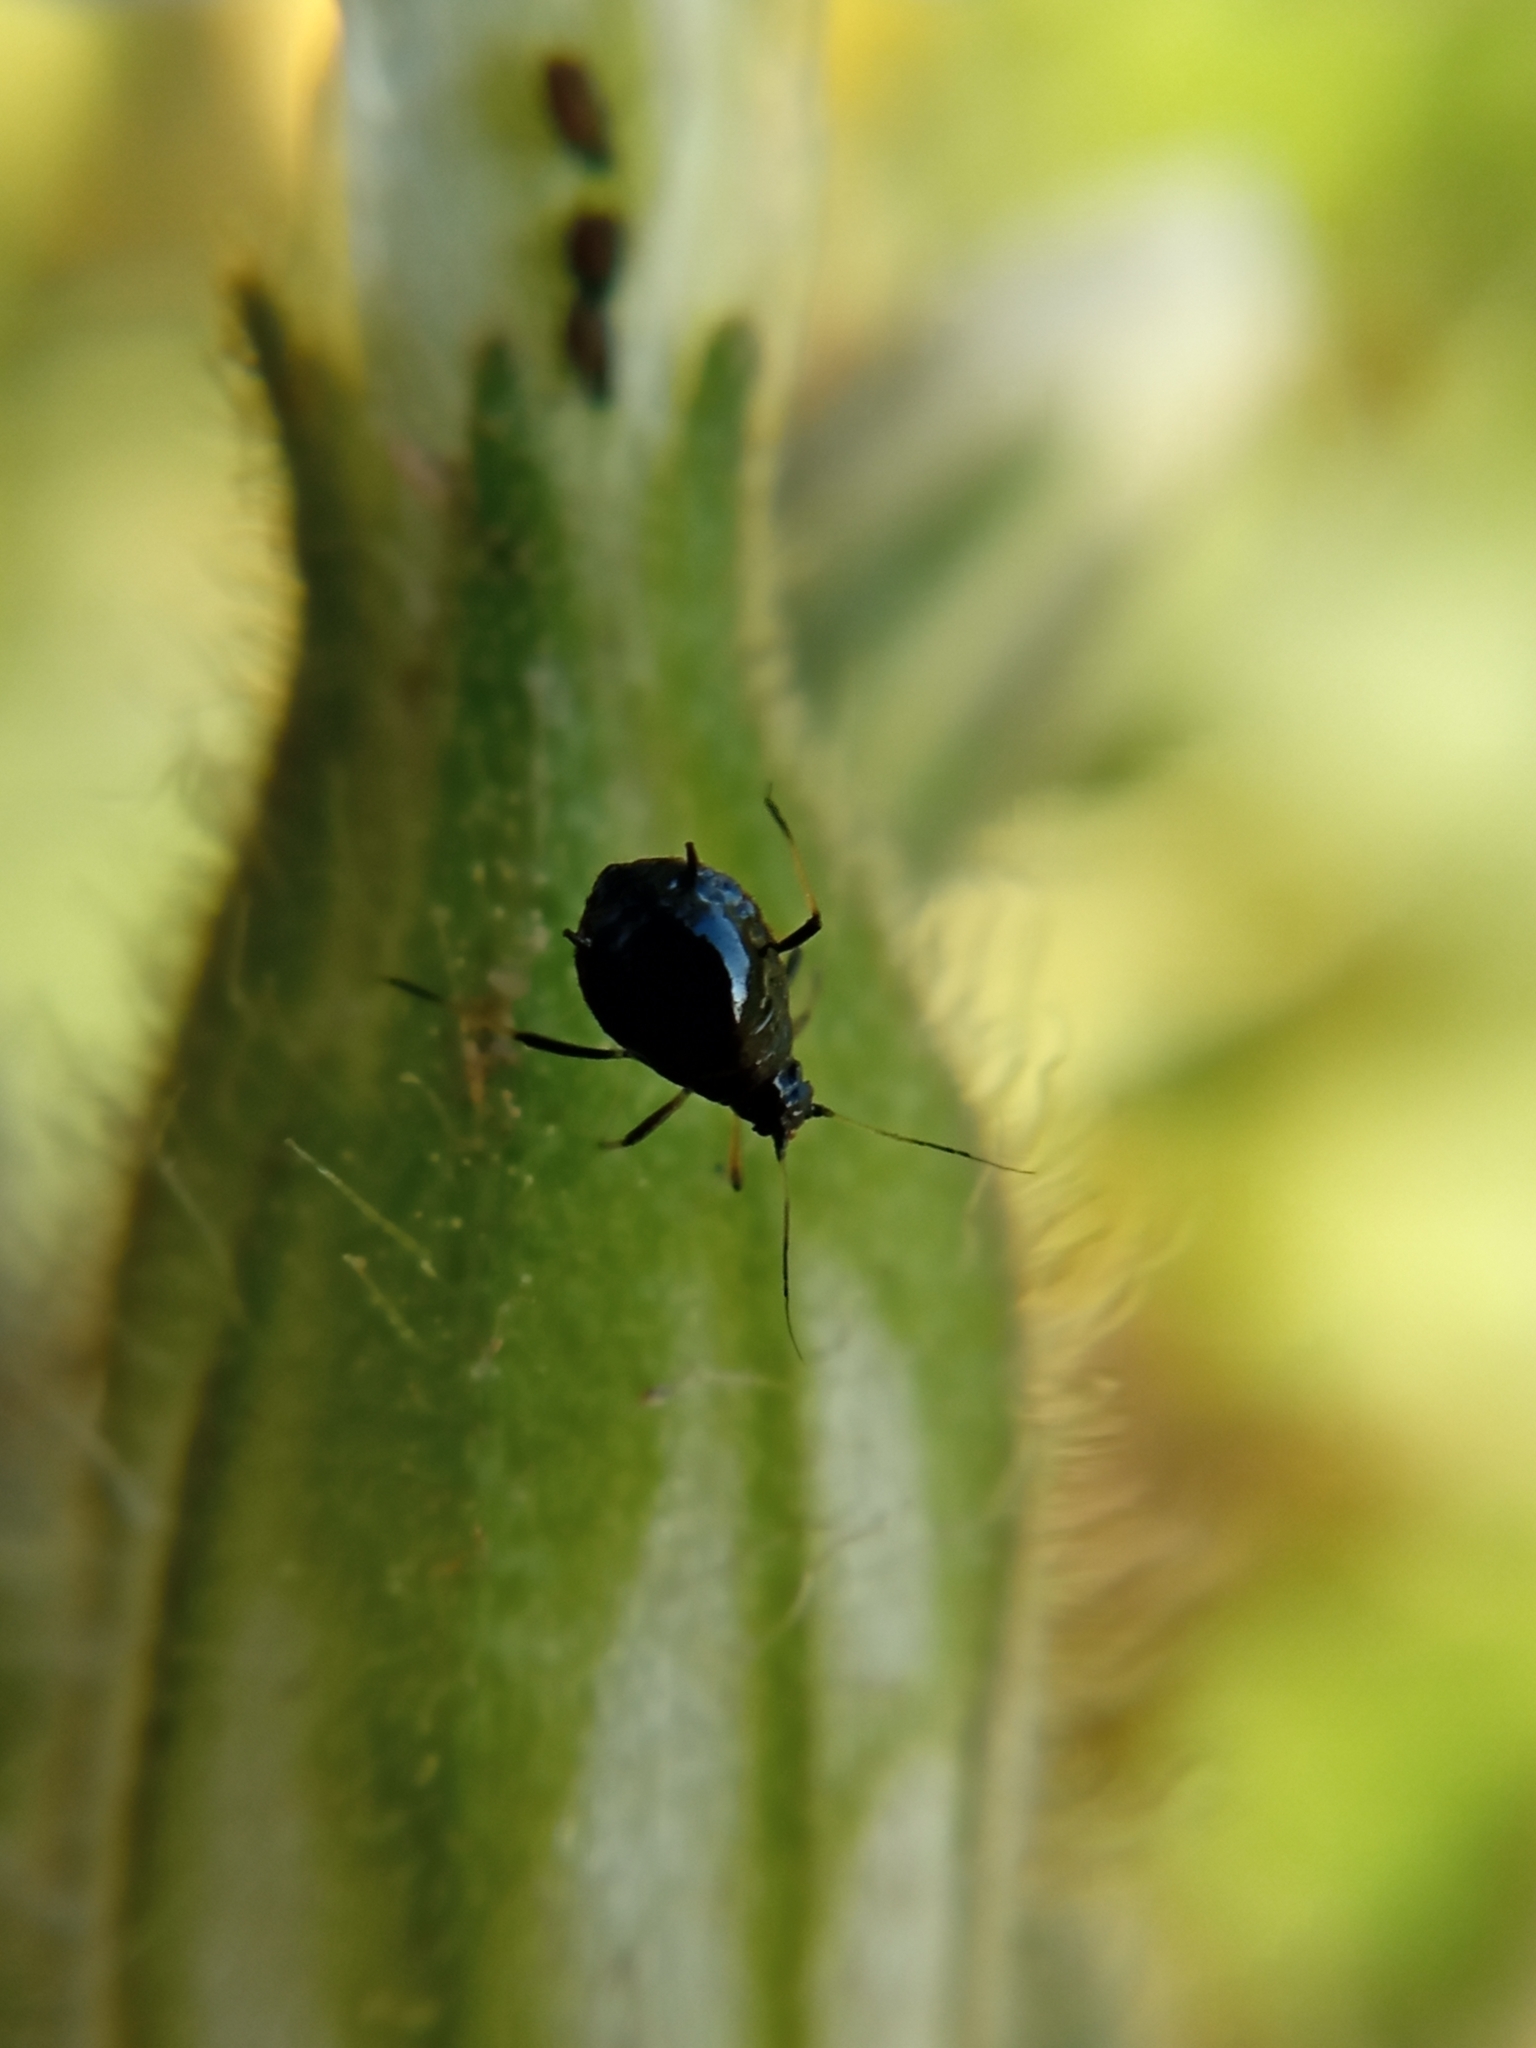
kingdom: Animalia
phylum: Arthropoda
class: Insecta
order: Hemiptera
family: Aphididae
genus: Aphis
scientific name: Aphis cucubali
